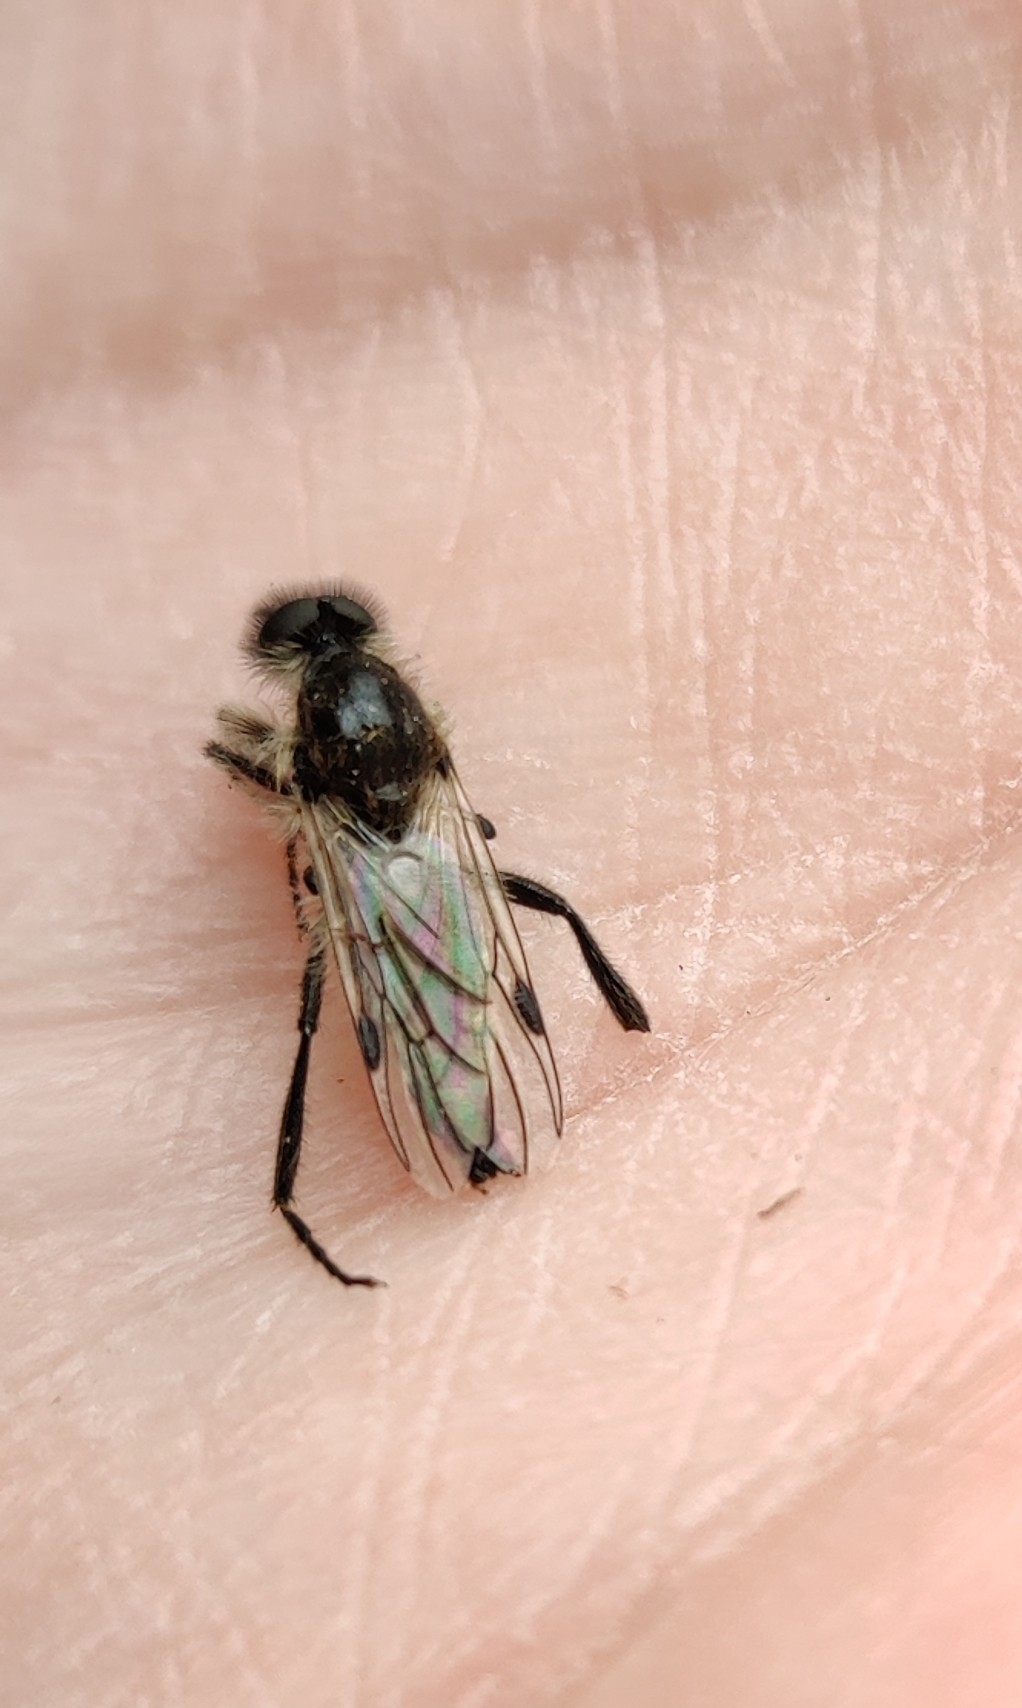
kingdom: Animalia
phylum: Arthropoda
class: Insecta
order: Diptera
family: Bibionidae
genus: Bibio
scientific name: Bibio albipennis
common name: White-winged march fly
